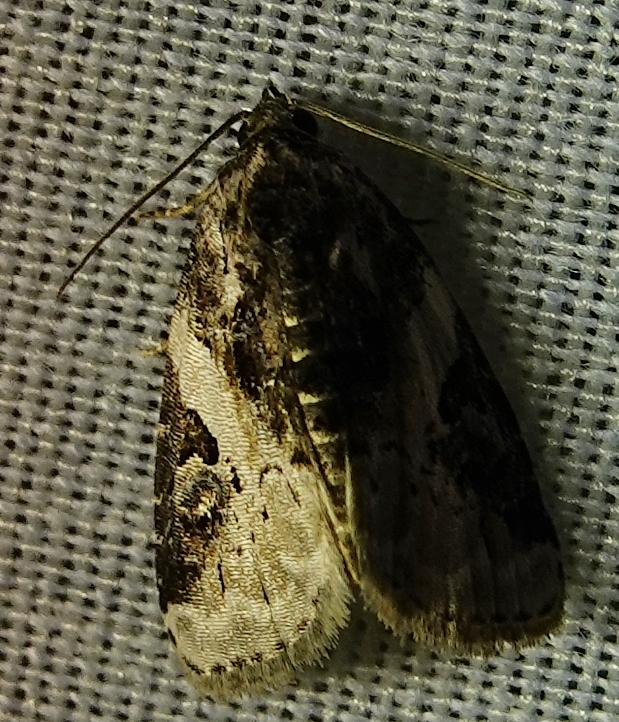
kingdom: Animalia
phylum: Arthropoda
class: Insecta
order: Lepidoptera
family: Noctuidae
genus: Pseudeustrotia
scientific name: Pseudeustrotia carneola
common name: Pink-barred lithacodia moth
